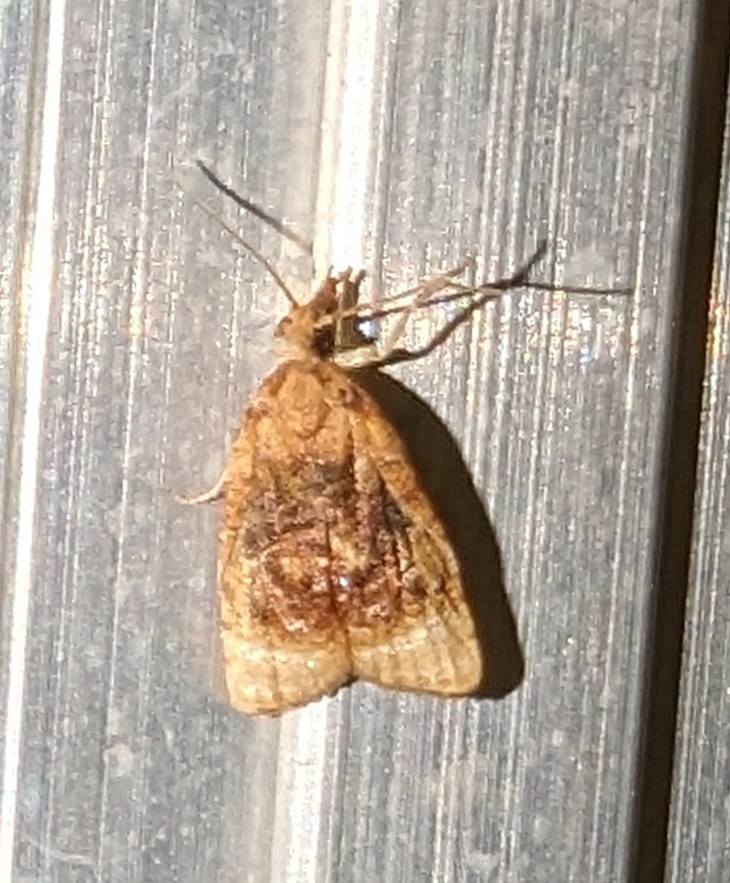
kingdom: Animalia
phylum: Arthropoda
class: Insecta
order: Lepidoptera
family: Tortricidae
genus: Platynota
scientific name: Platynota flavedana
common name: Black-shaded platynota moth
